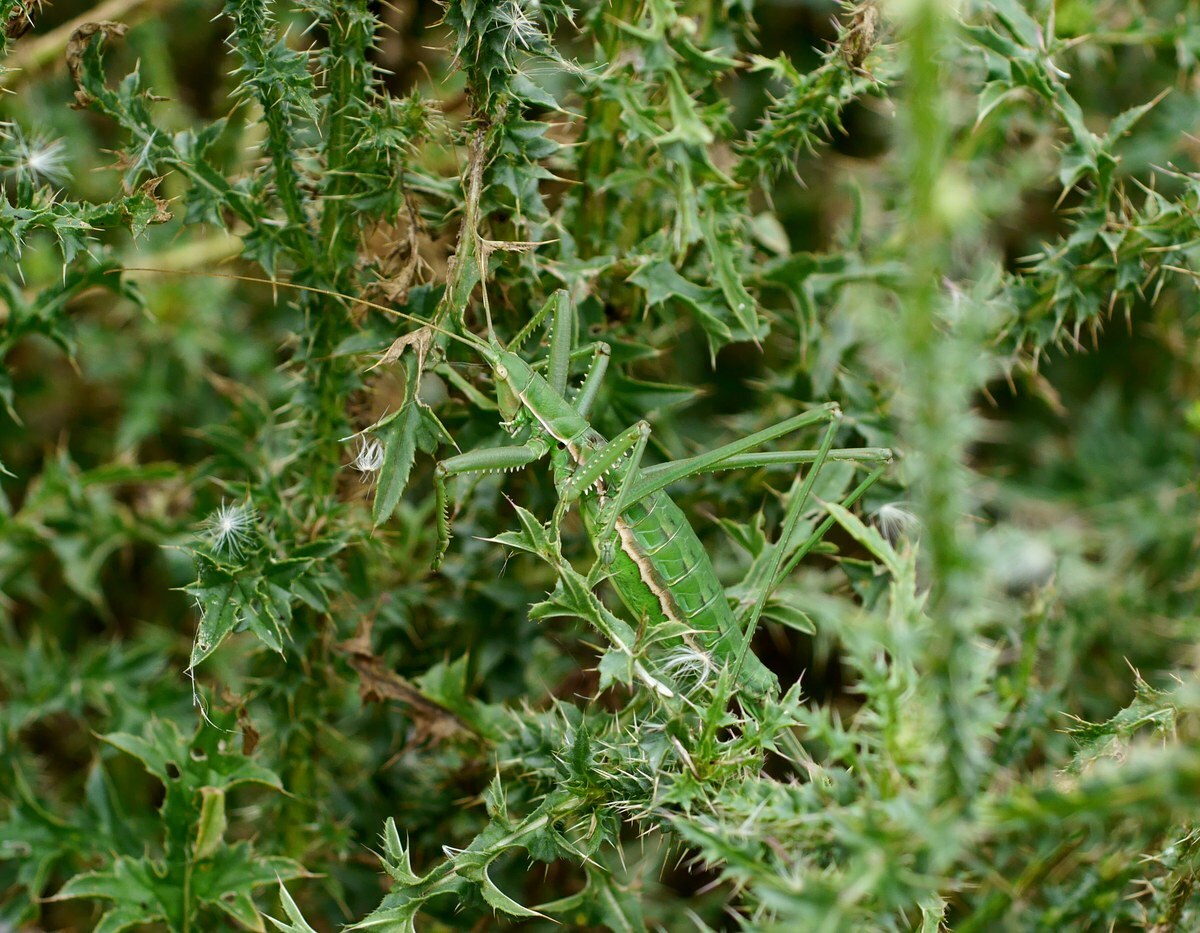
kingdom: Animalia
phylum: Arthropoda
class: Insecta
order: Orthoptera
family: Tettigoniidae
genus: Saga
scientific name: Saga pedo
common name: Common predatory bush-cricket
